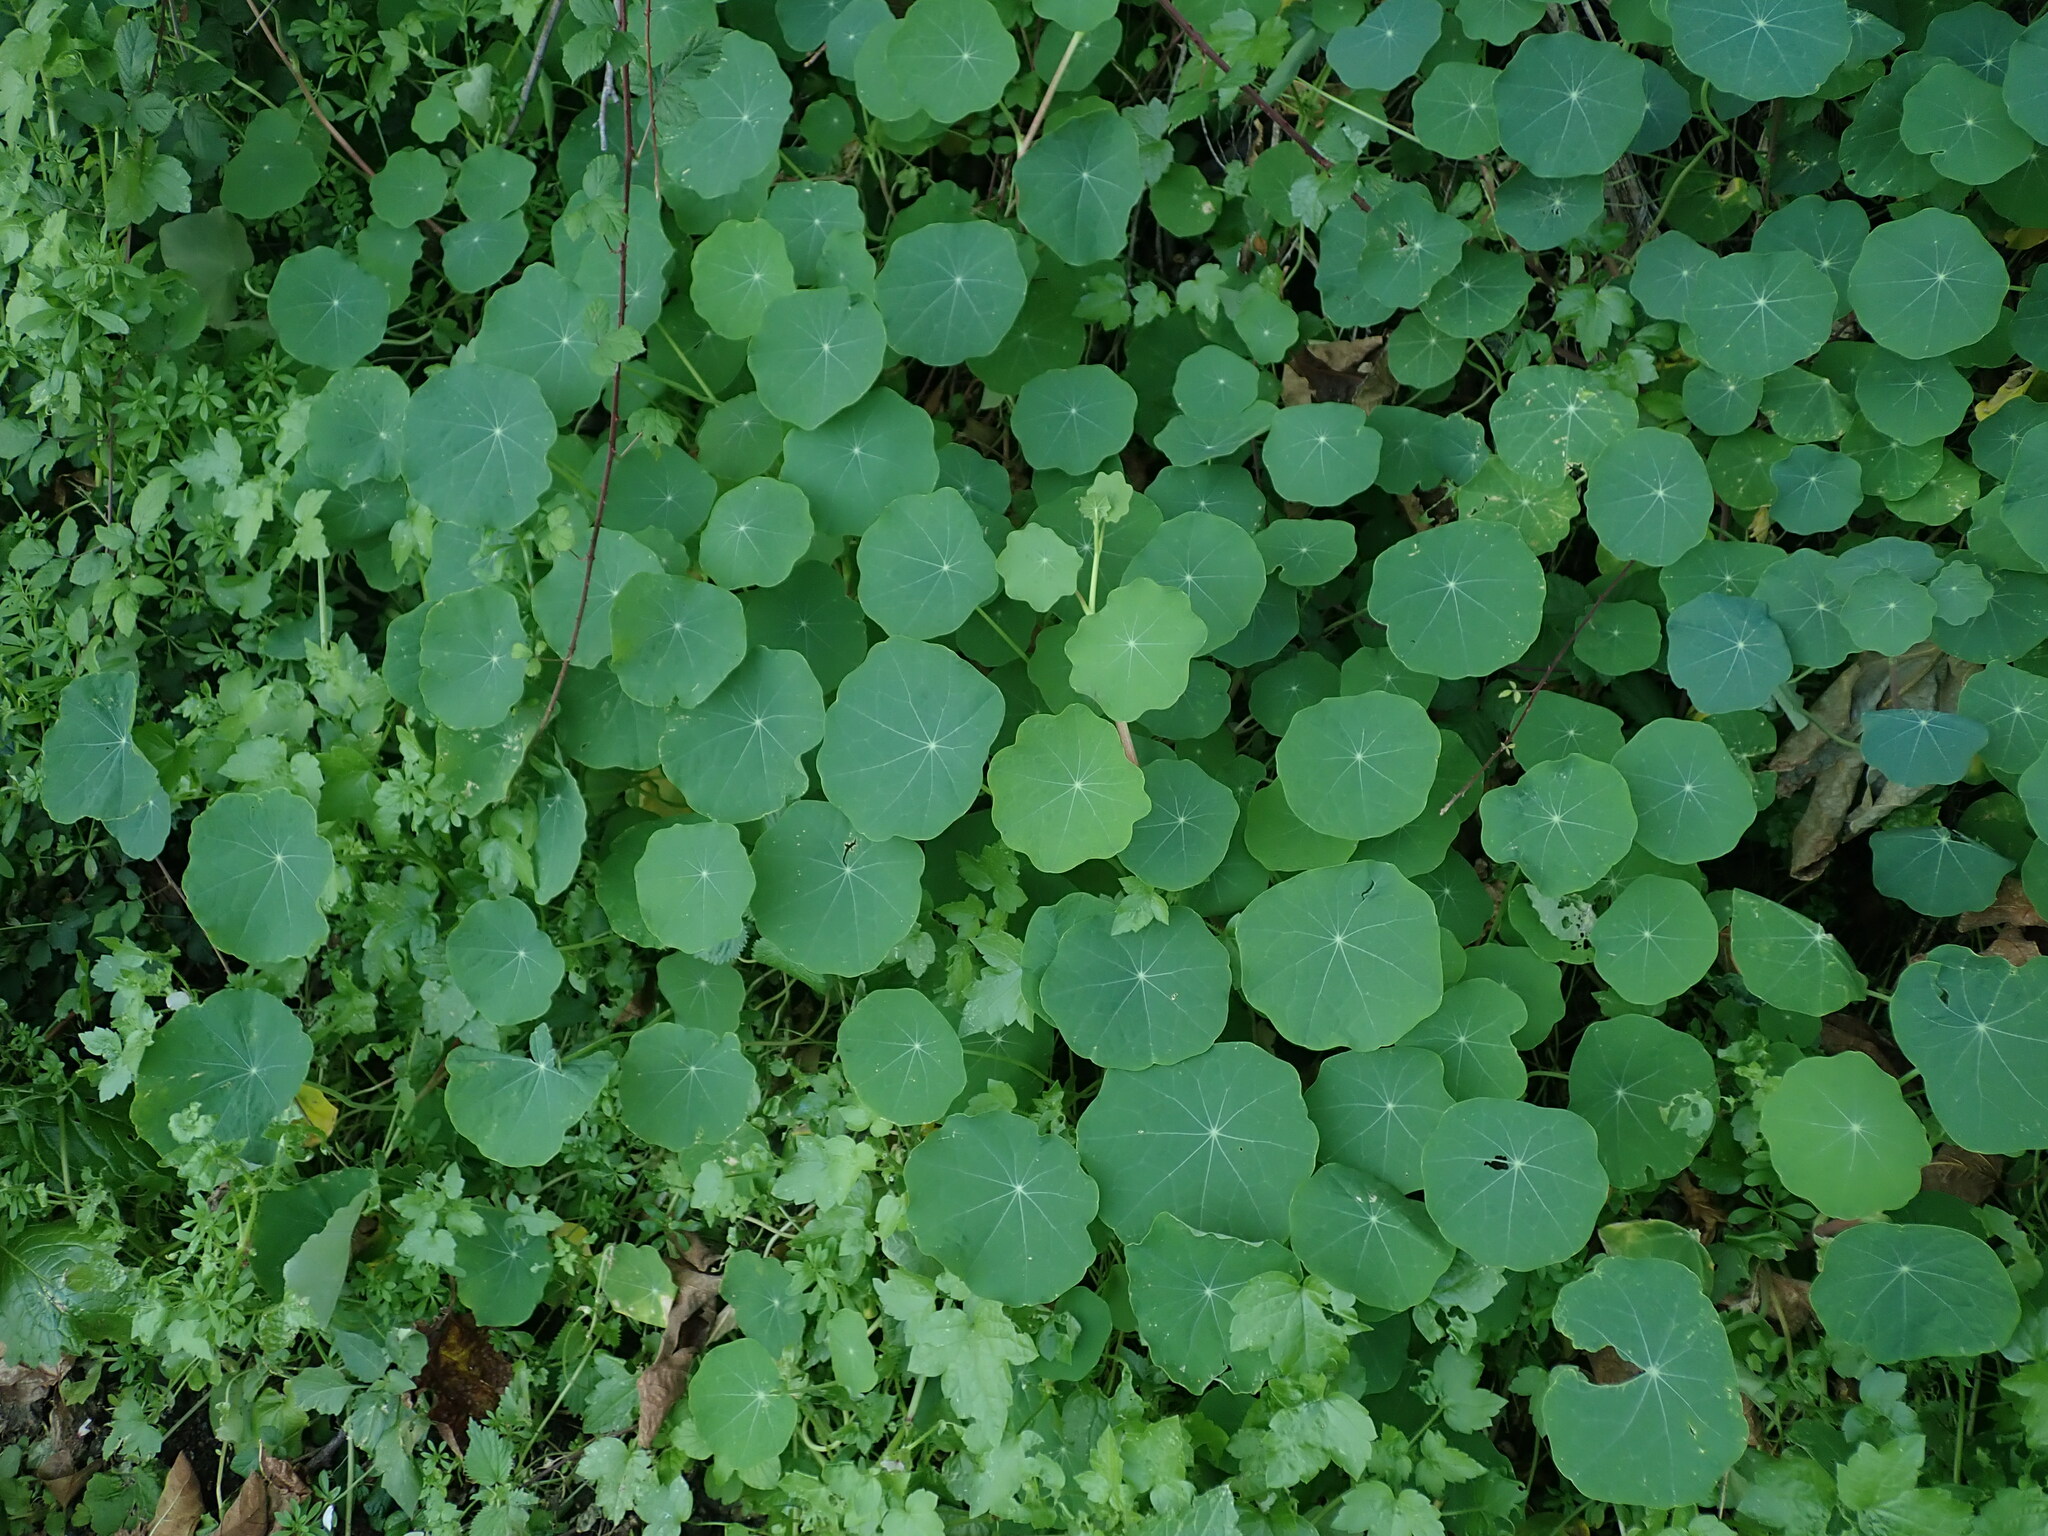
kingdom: Plantae
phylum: Tracheophyta
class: Magnoliopsida
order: Brassicales
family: Tropaeolaceae
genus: Tropaeolum
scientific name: Tropaeolum majus
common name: Nasturtium
